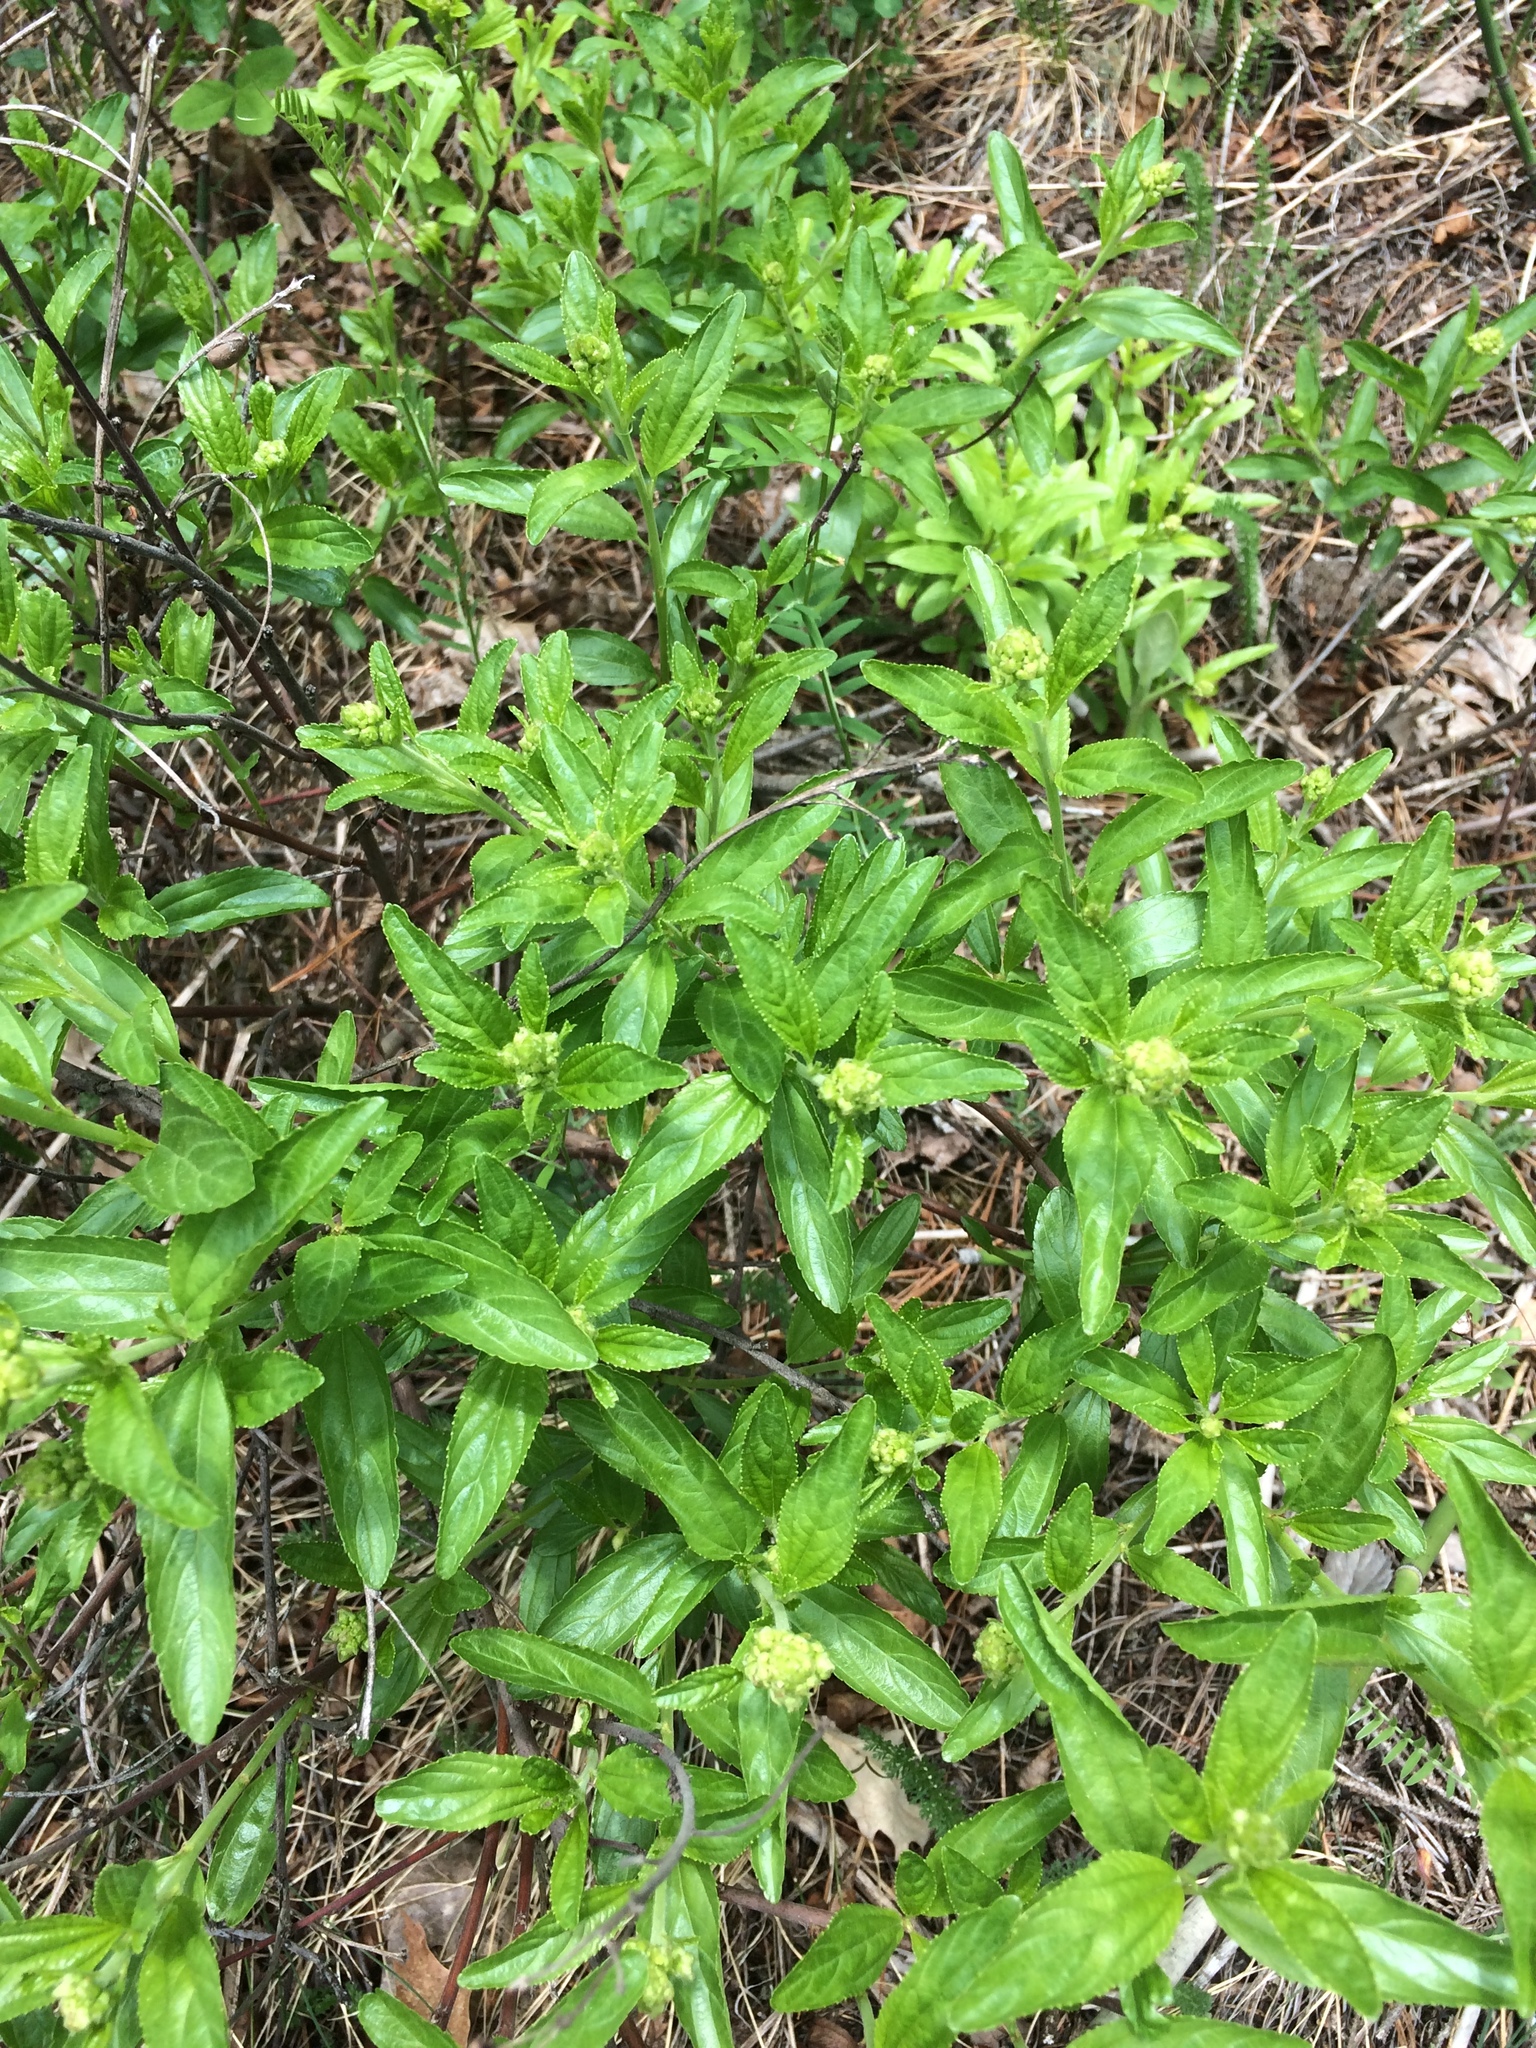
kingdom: Plantae
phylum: Tracheophyta
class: Magnoliopsida
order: Rosales
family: Rhamnaceae
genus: Ceanothus
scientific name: Ceanothus herbaceus
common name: Inland ceanothus
